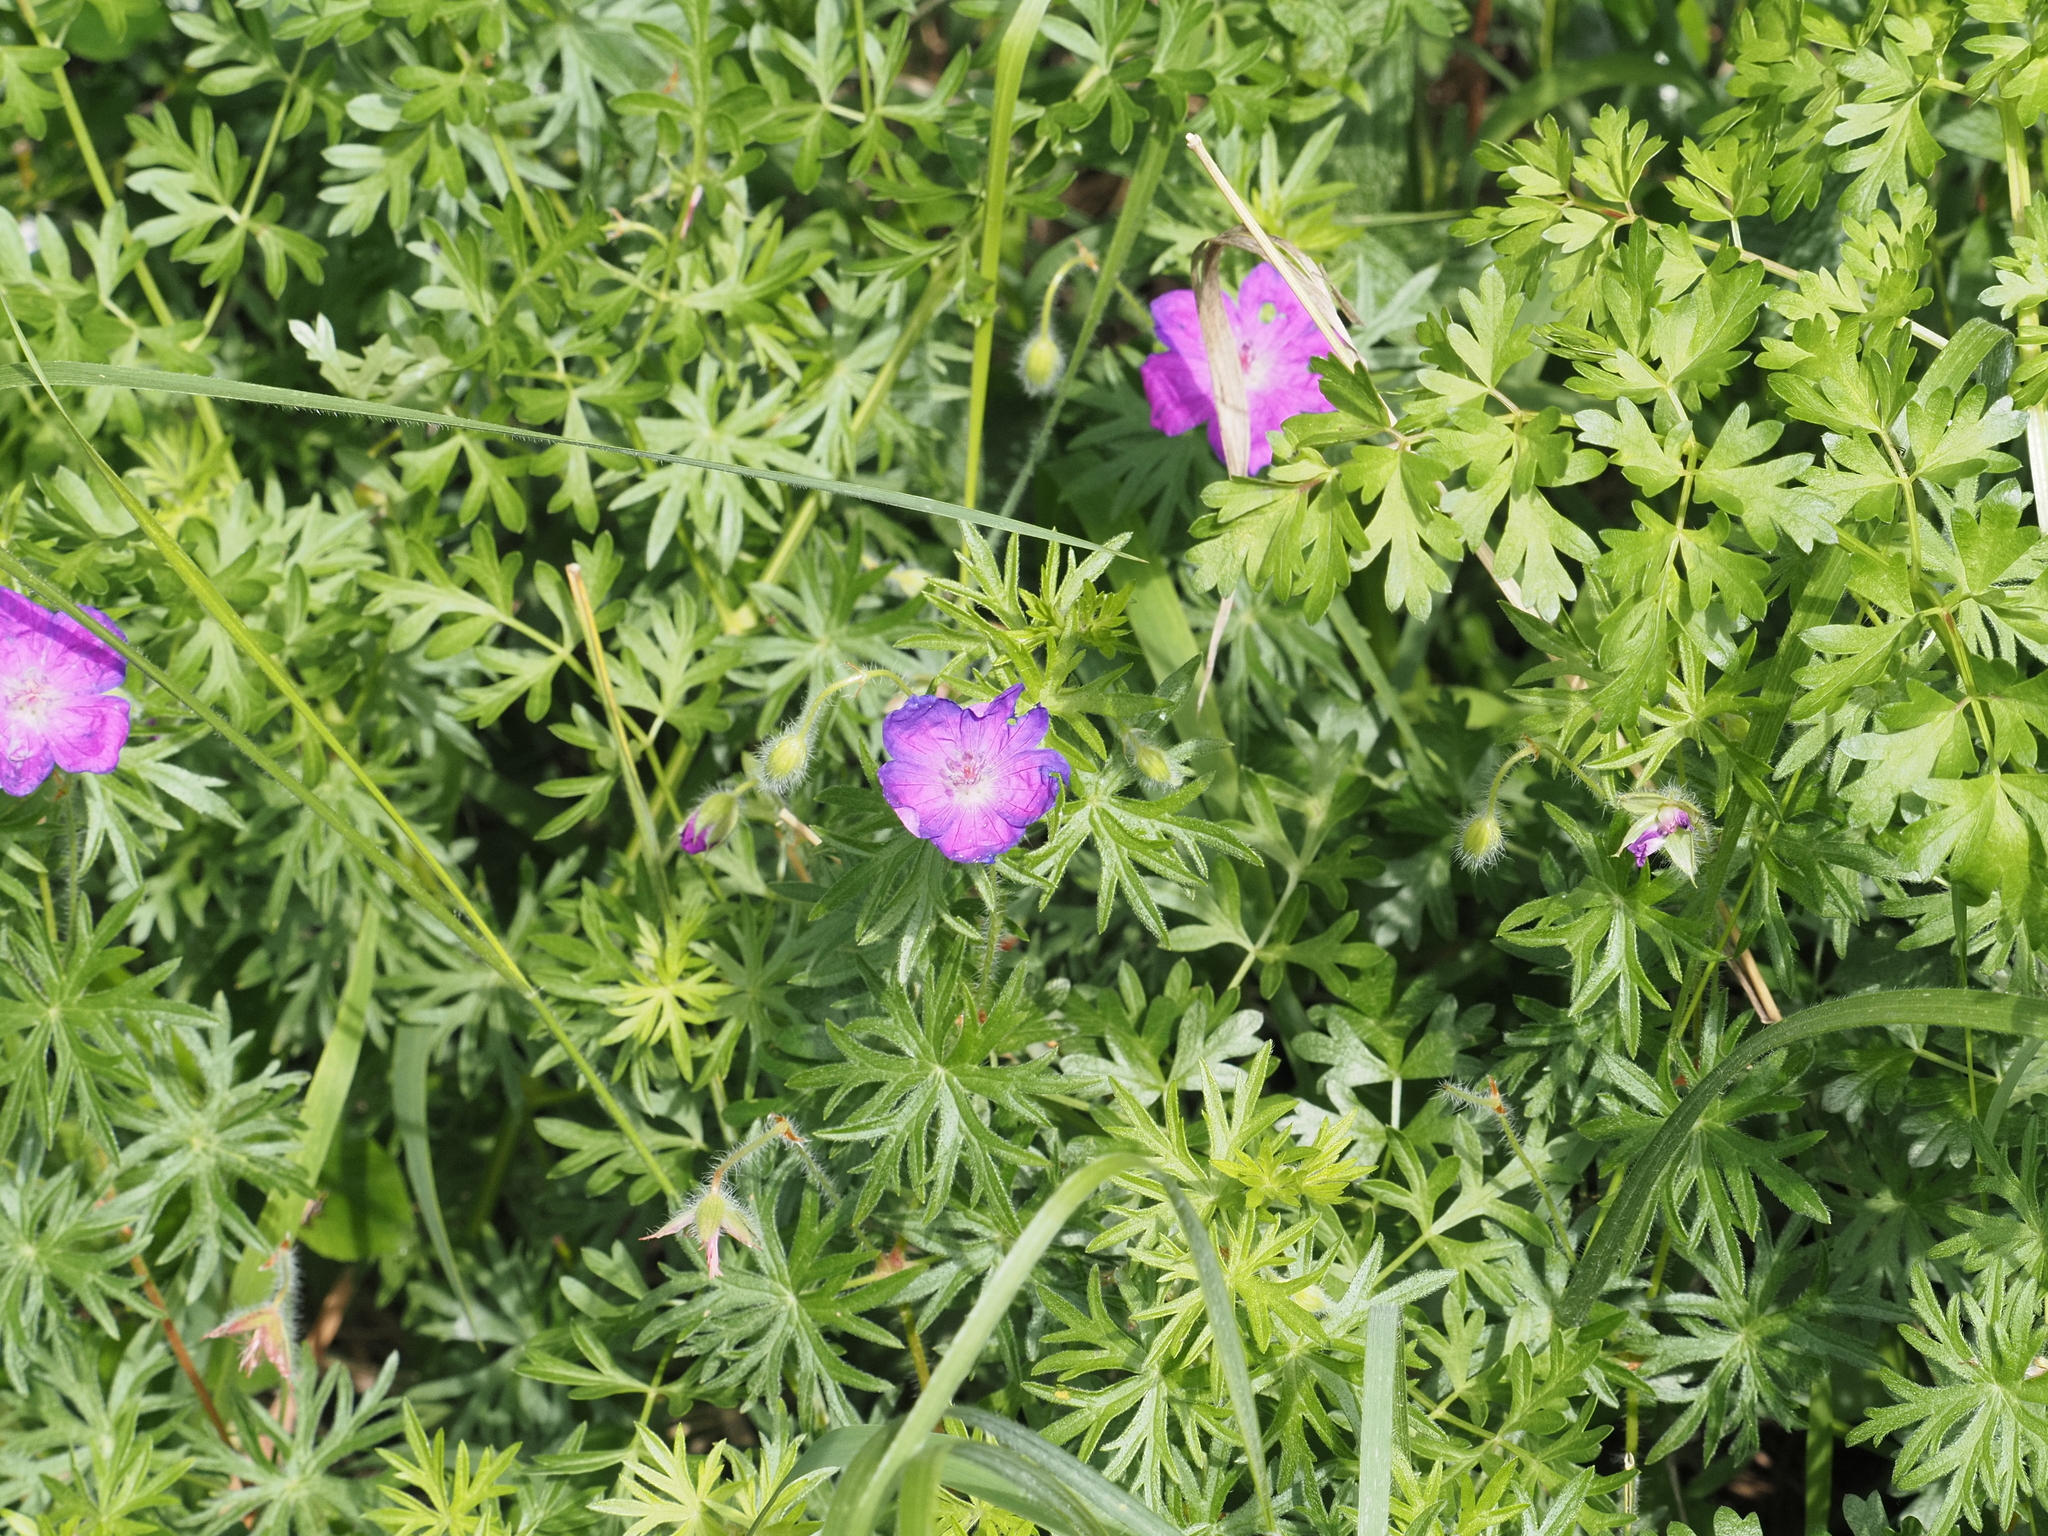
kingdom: Plantae
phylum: Tracheophyta
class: Magnoliopsida
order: Geraniales
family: Geraniaceae
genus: Geranium
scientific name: Geranium sanguineum
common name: Bloody crane's-bill
